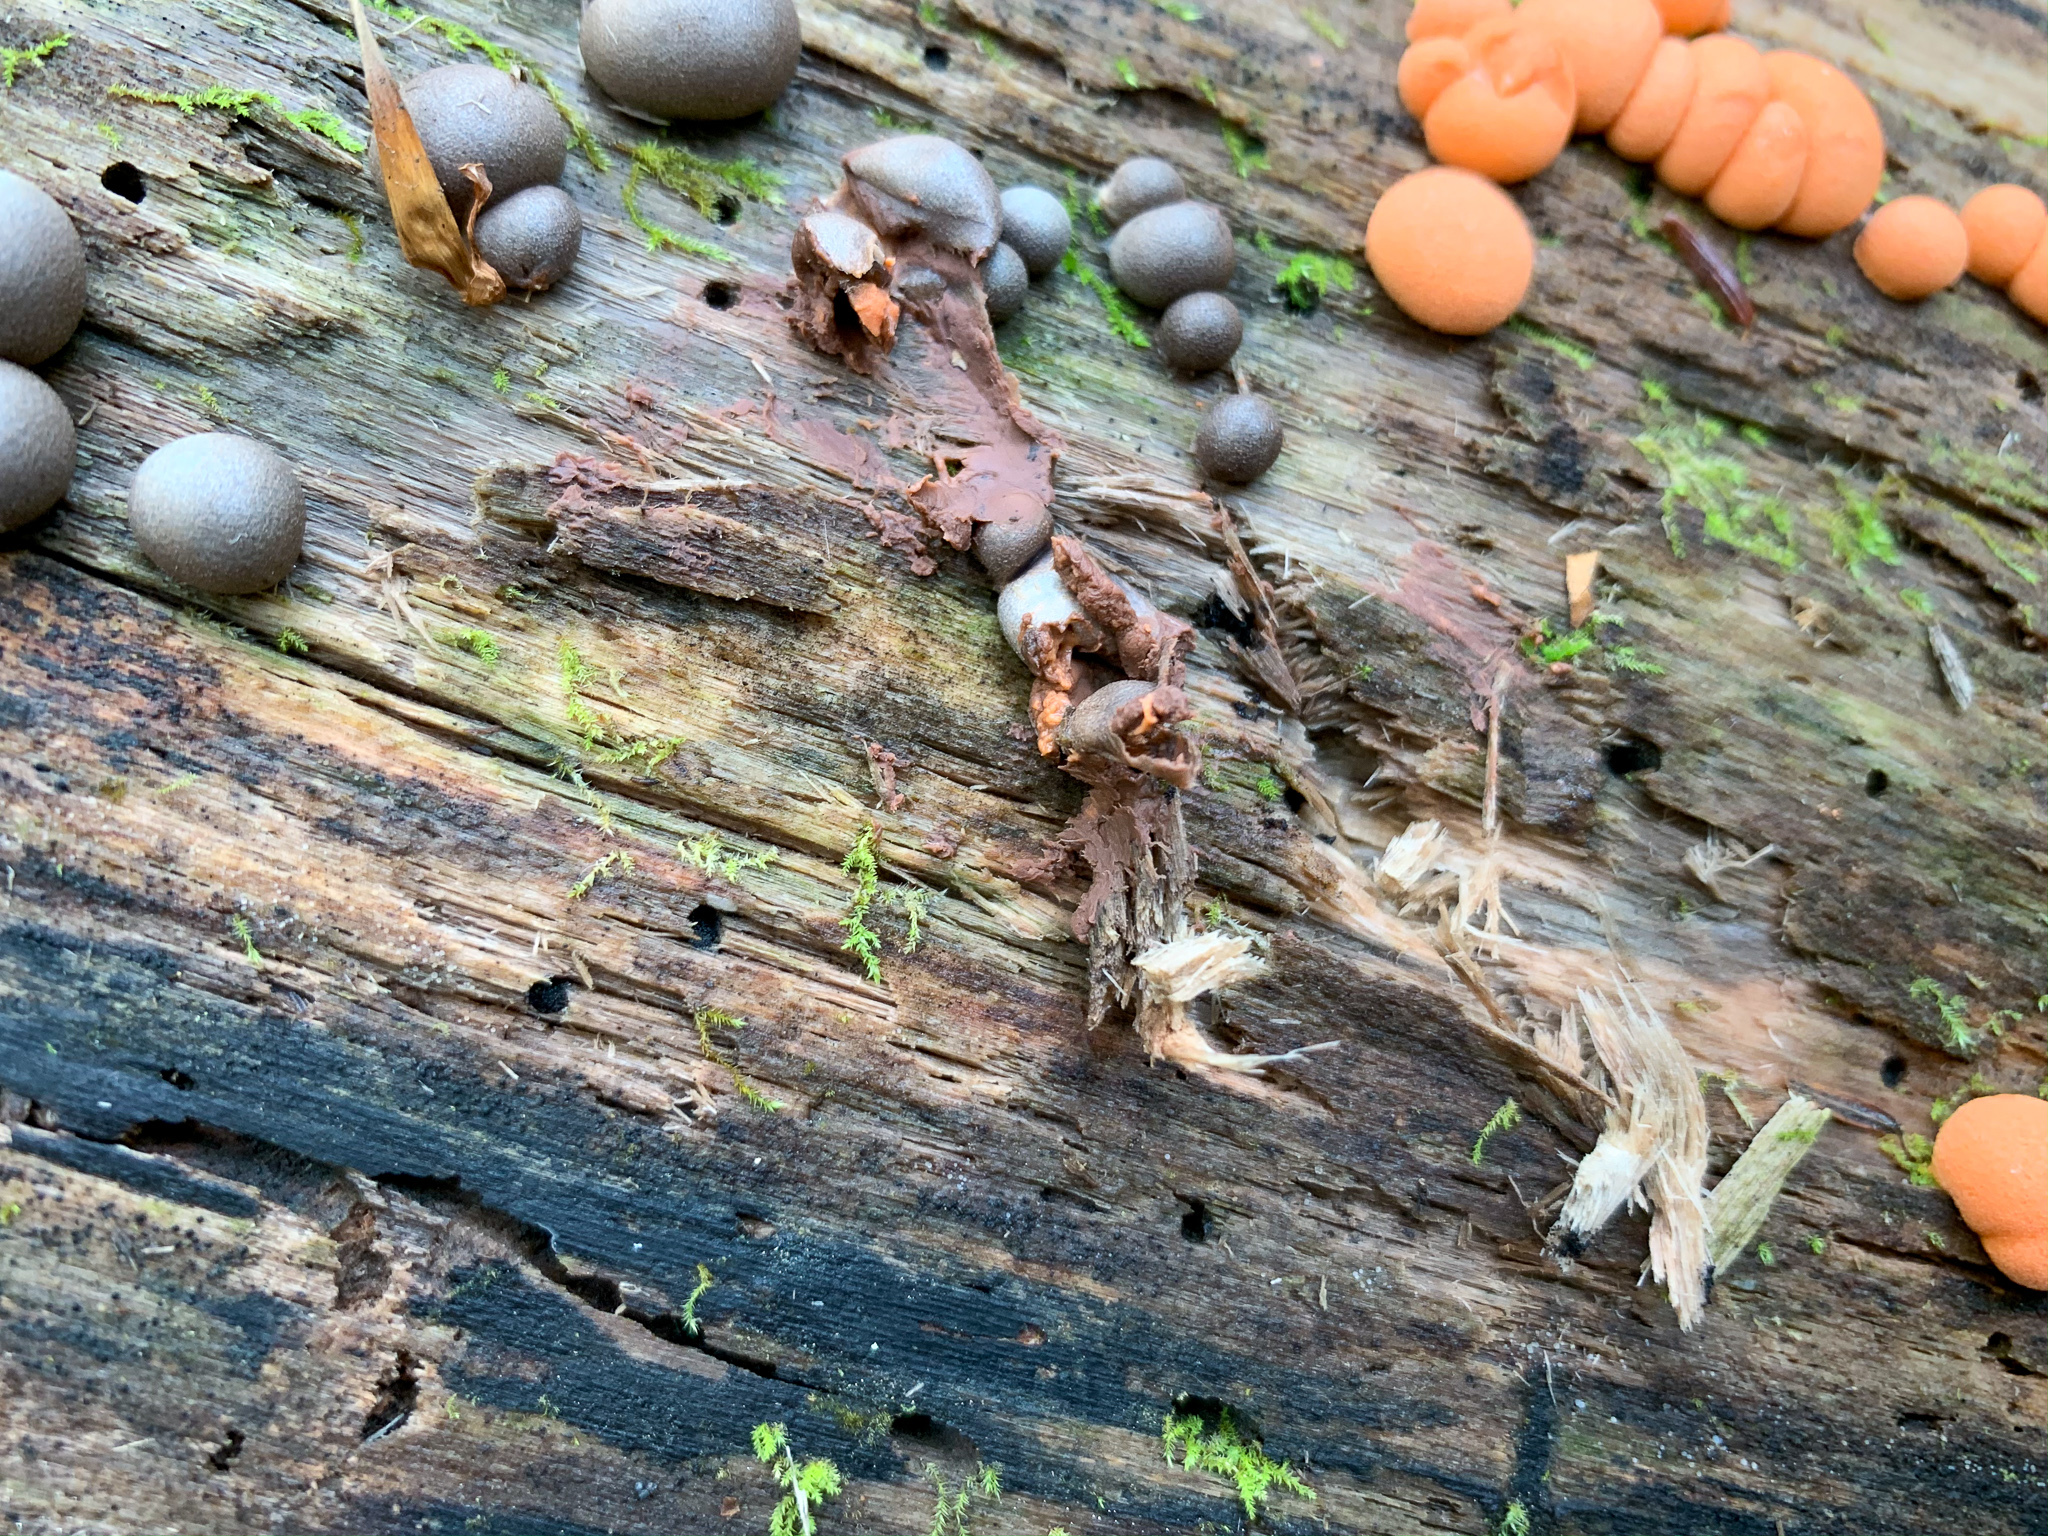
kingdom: Protozoa
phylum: Mycetozoa
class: Myxomycetes
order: Cribrariales
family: Tubiferaceae
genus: Lycogala
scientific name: Lycogala epidendrum
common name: Wolf's milk
